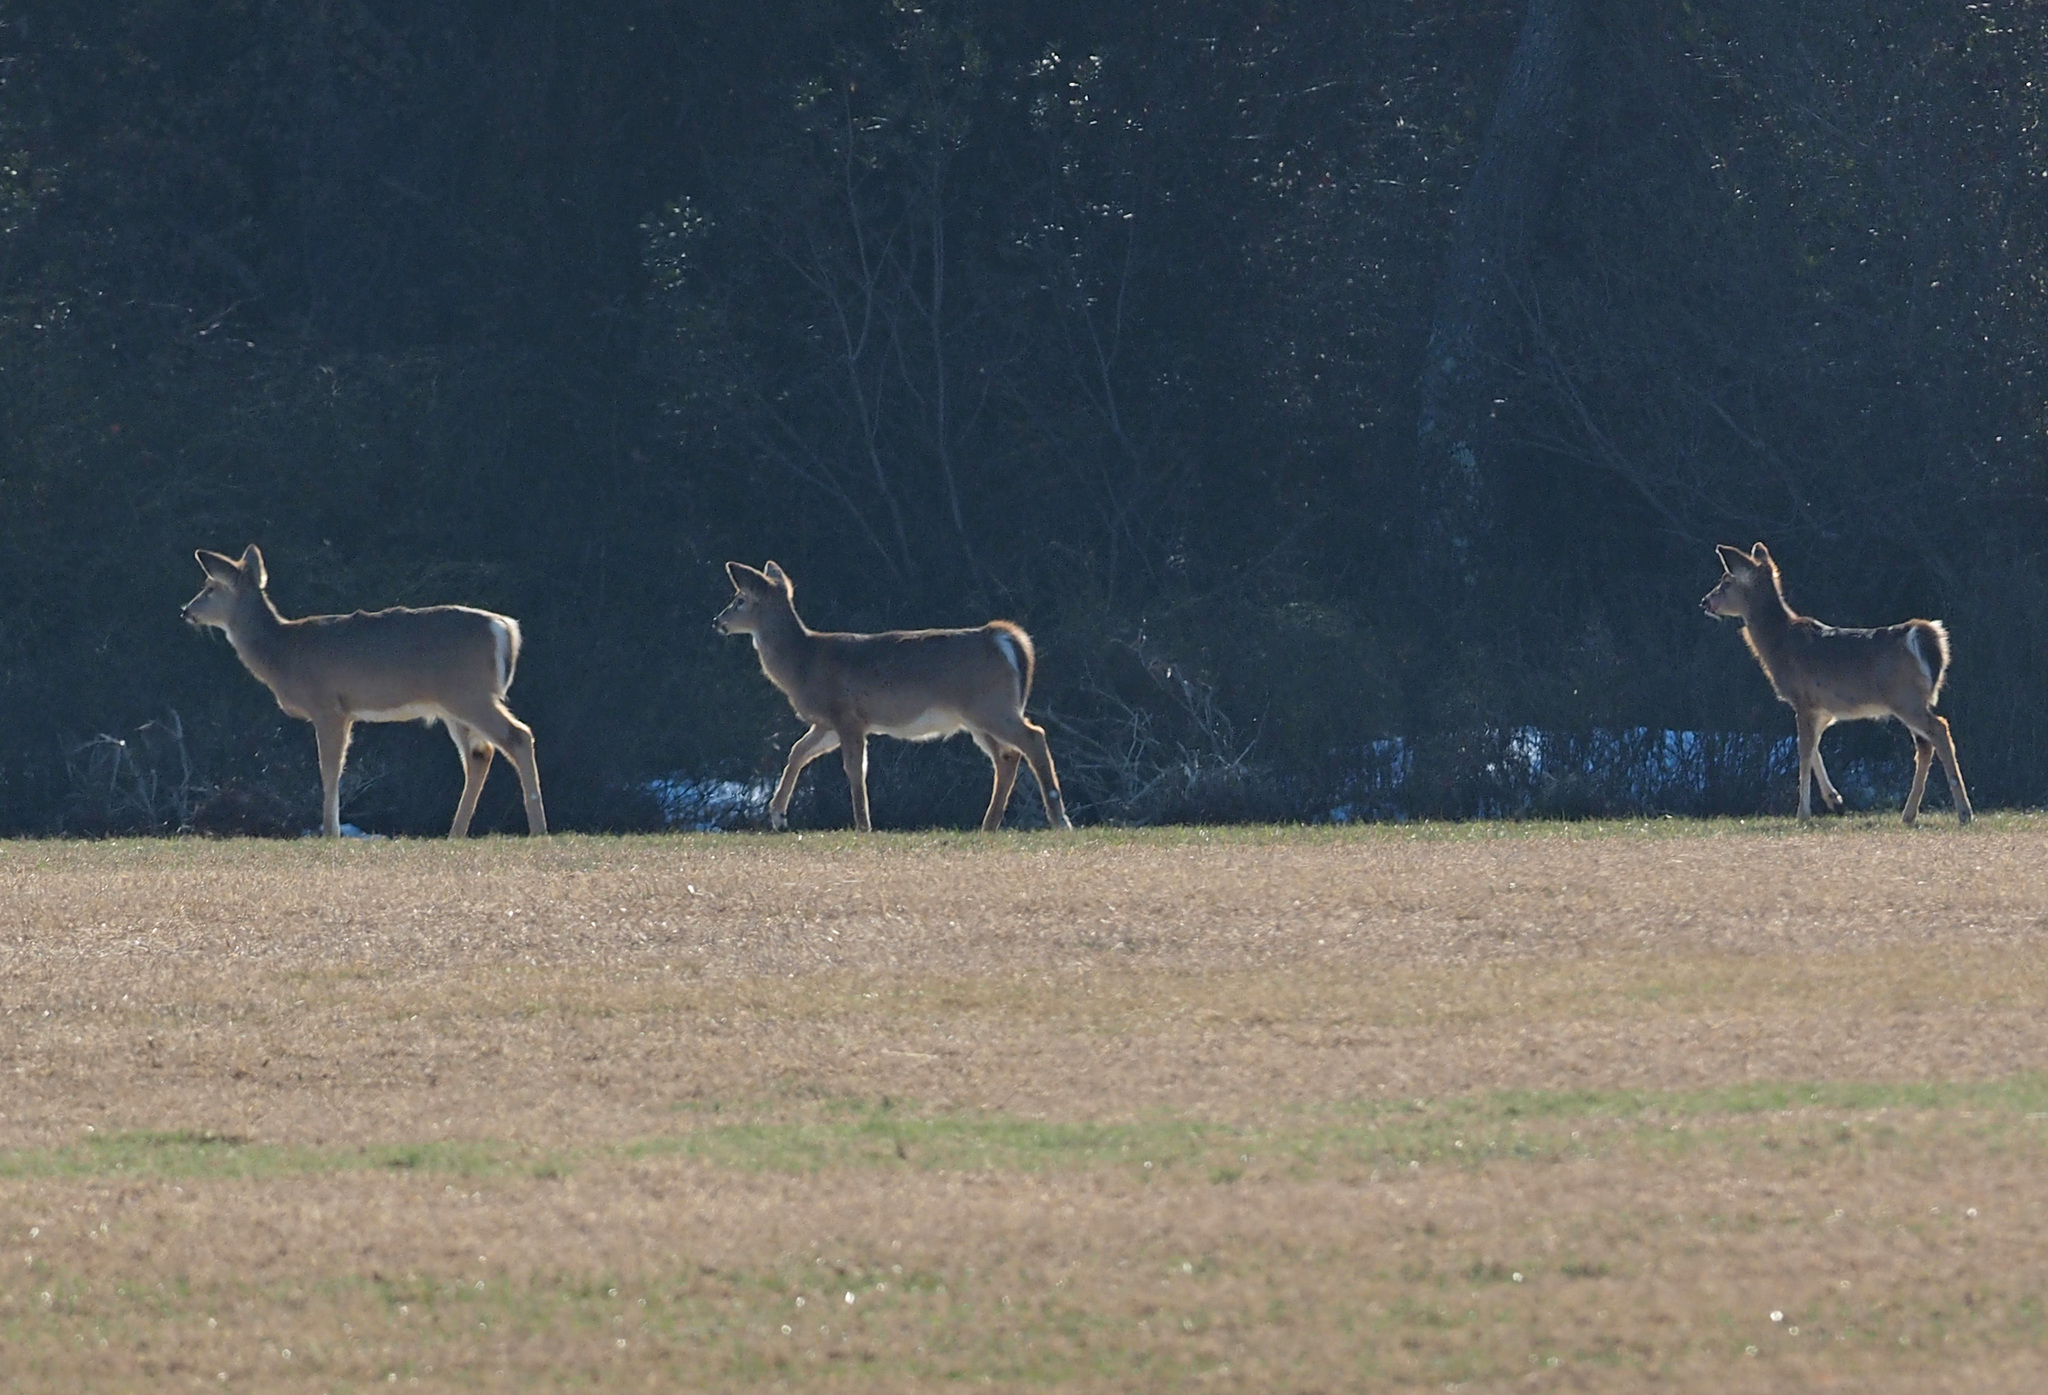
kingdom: Animalia
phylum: Chordata
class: Mammalia
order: Artiodactyla
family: Cervidae
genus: Odocoileus
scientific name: Odocoileus virginianus
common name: White-tailed deer
